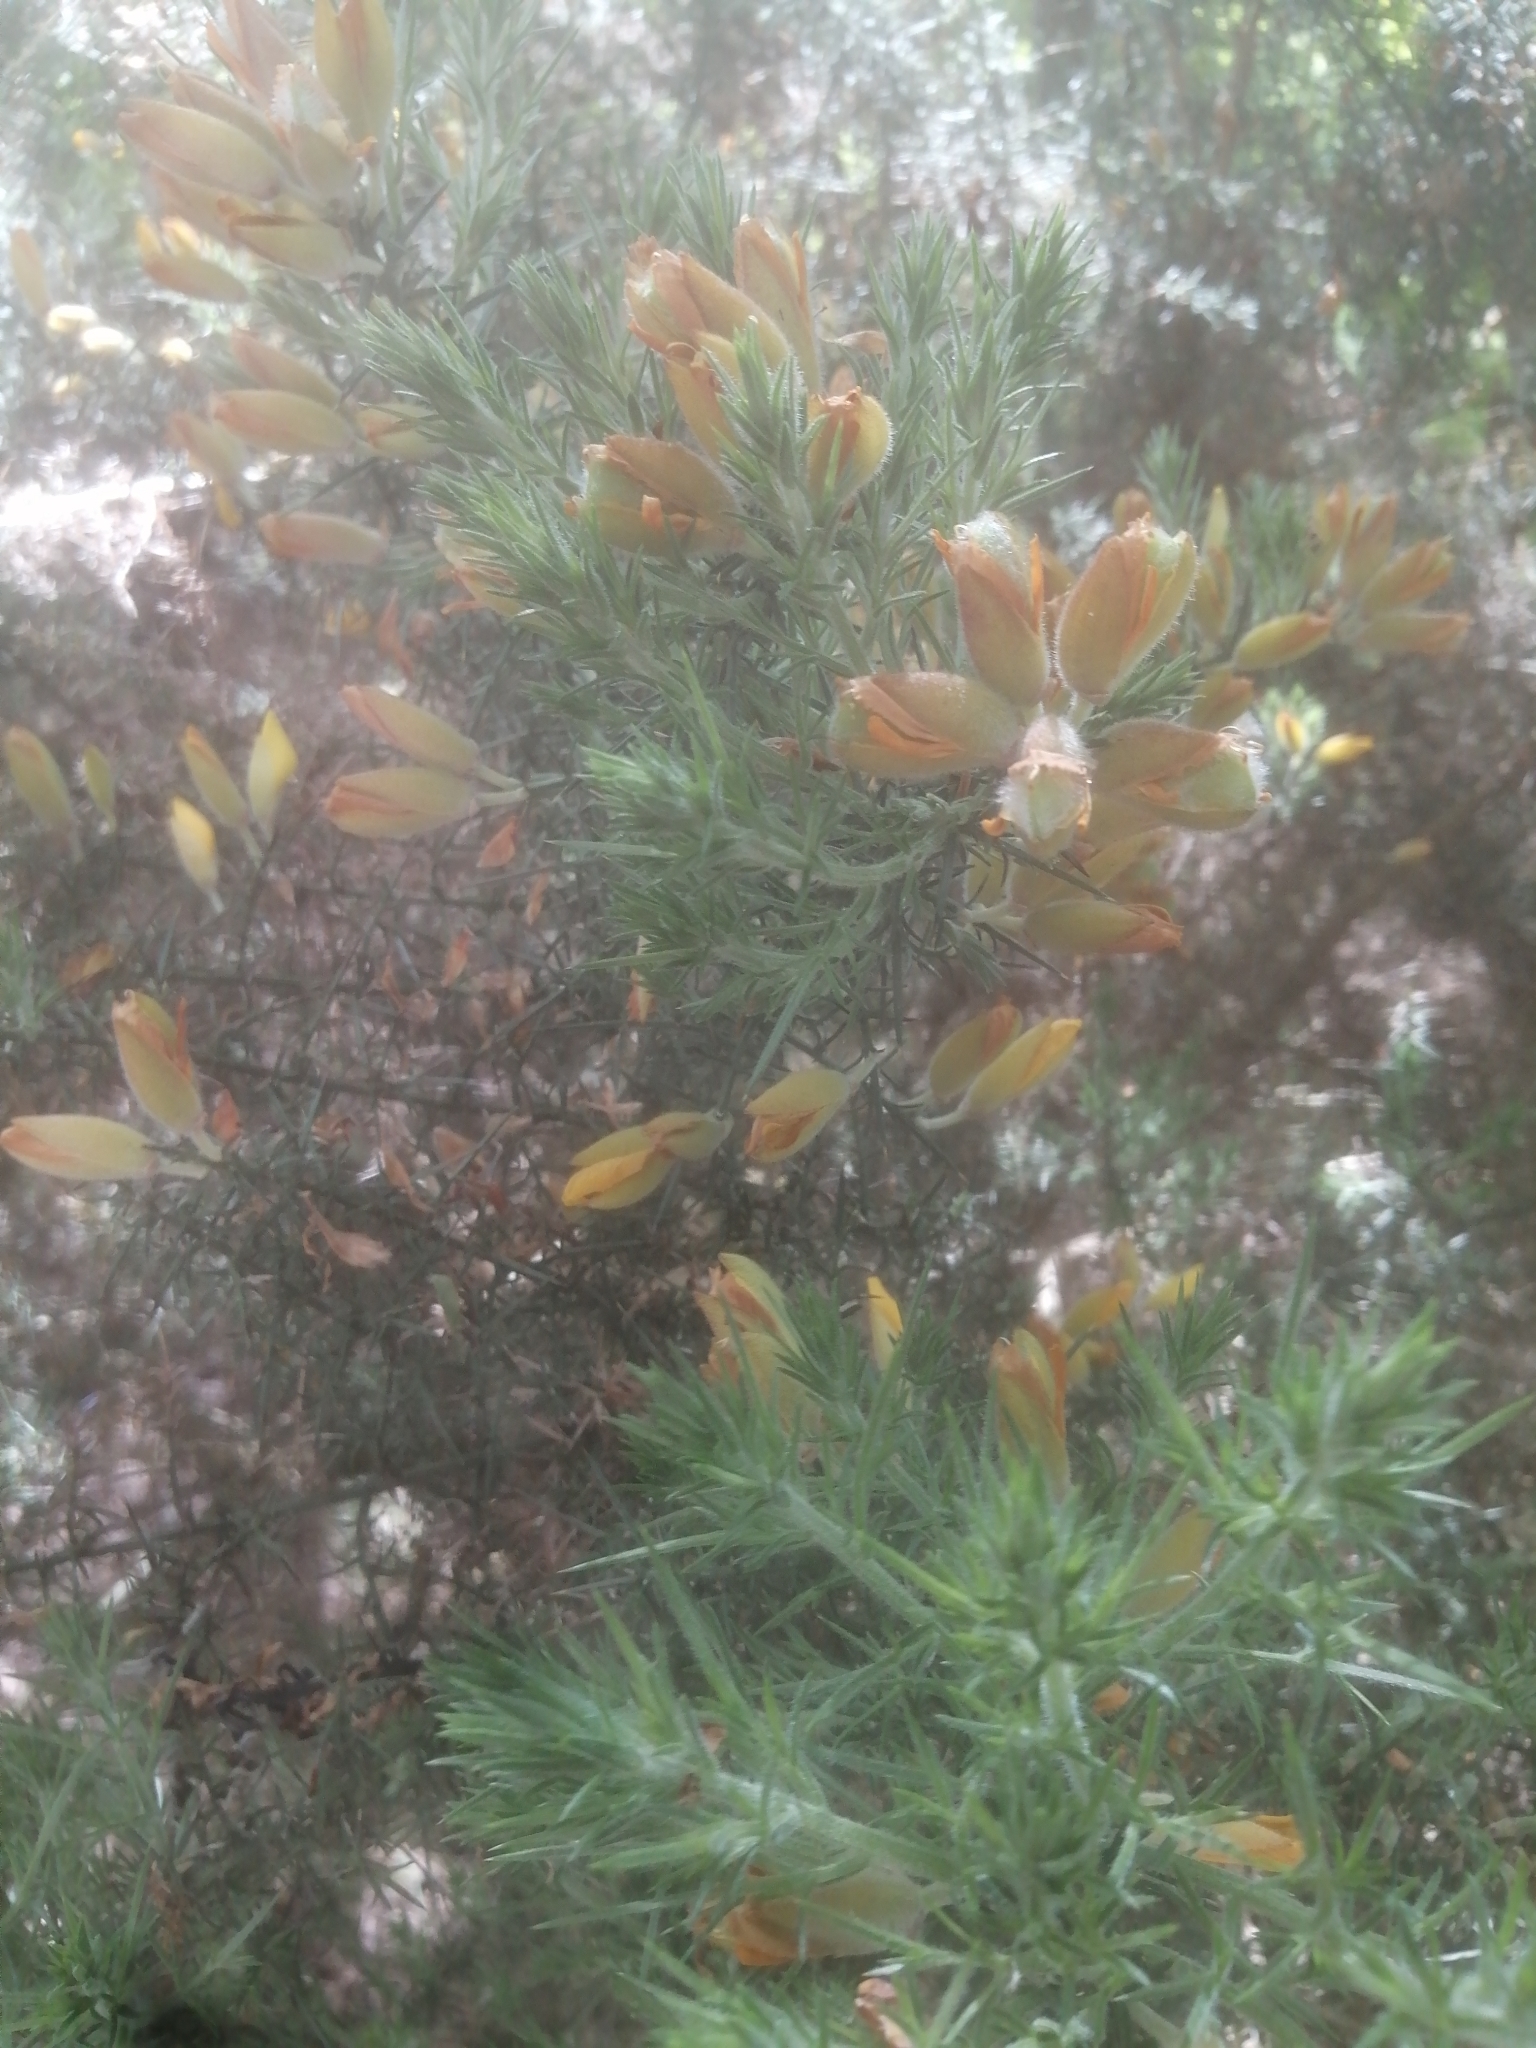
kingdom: Plantae
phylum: Tracheophyta
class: Magnoliopsida
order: Fabales
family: Fabaceae
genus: Ulex
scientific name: Ulex europaeus
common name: Common gorse
